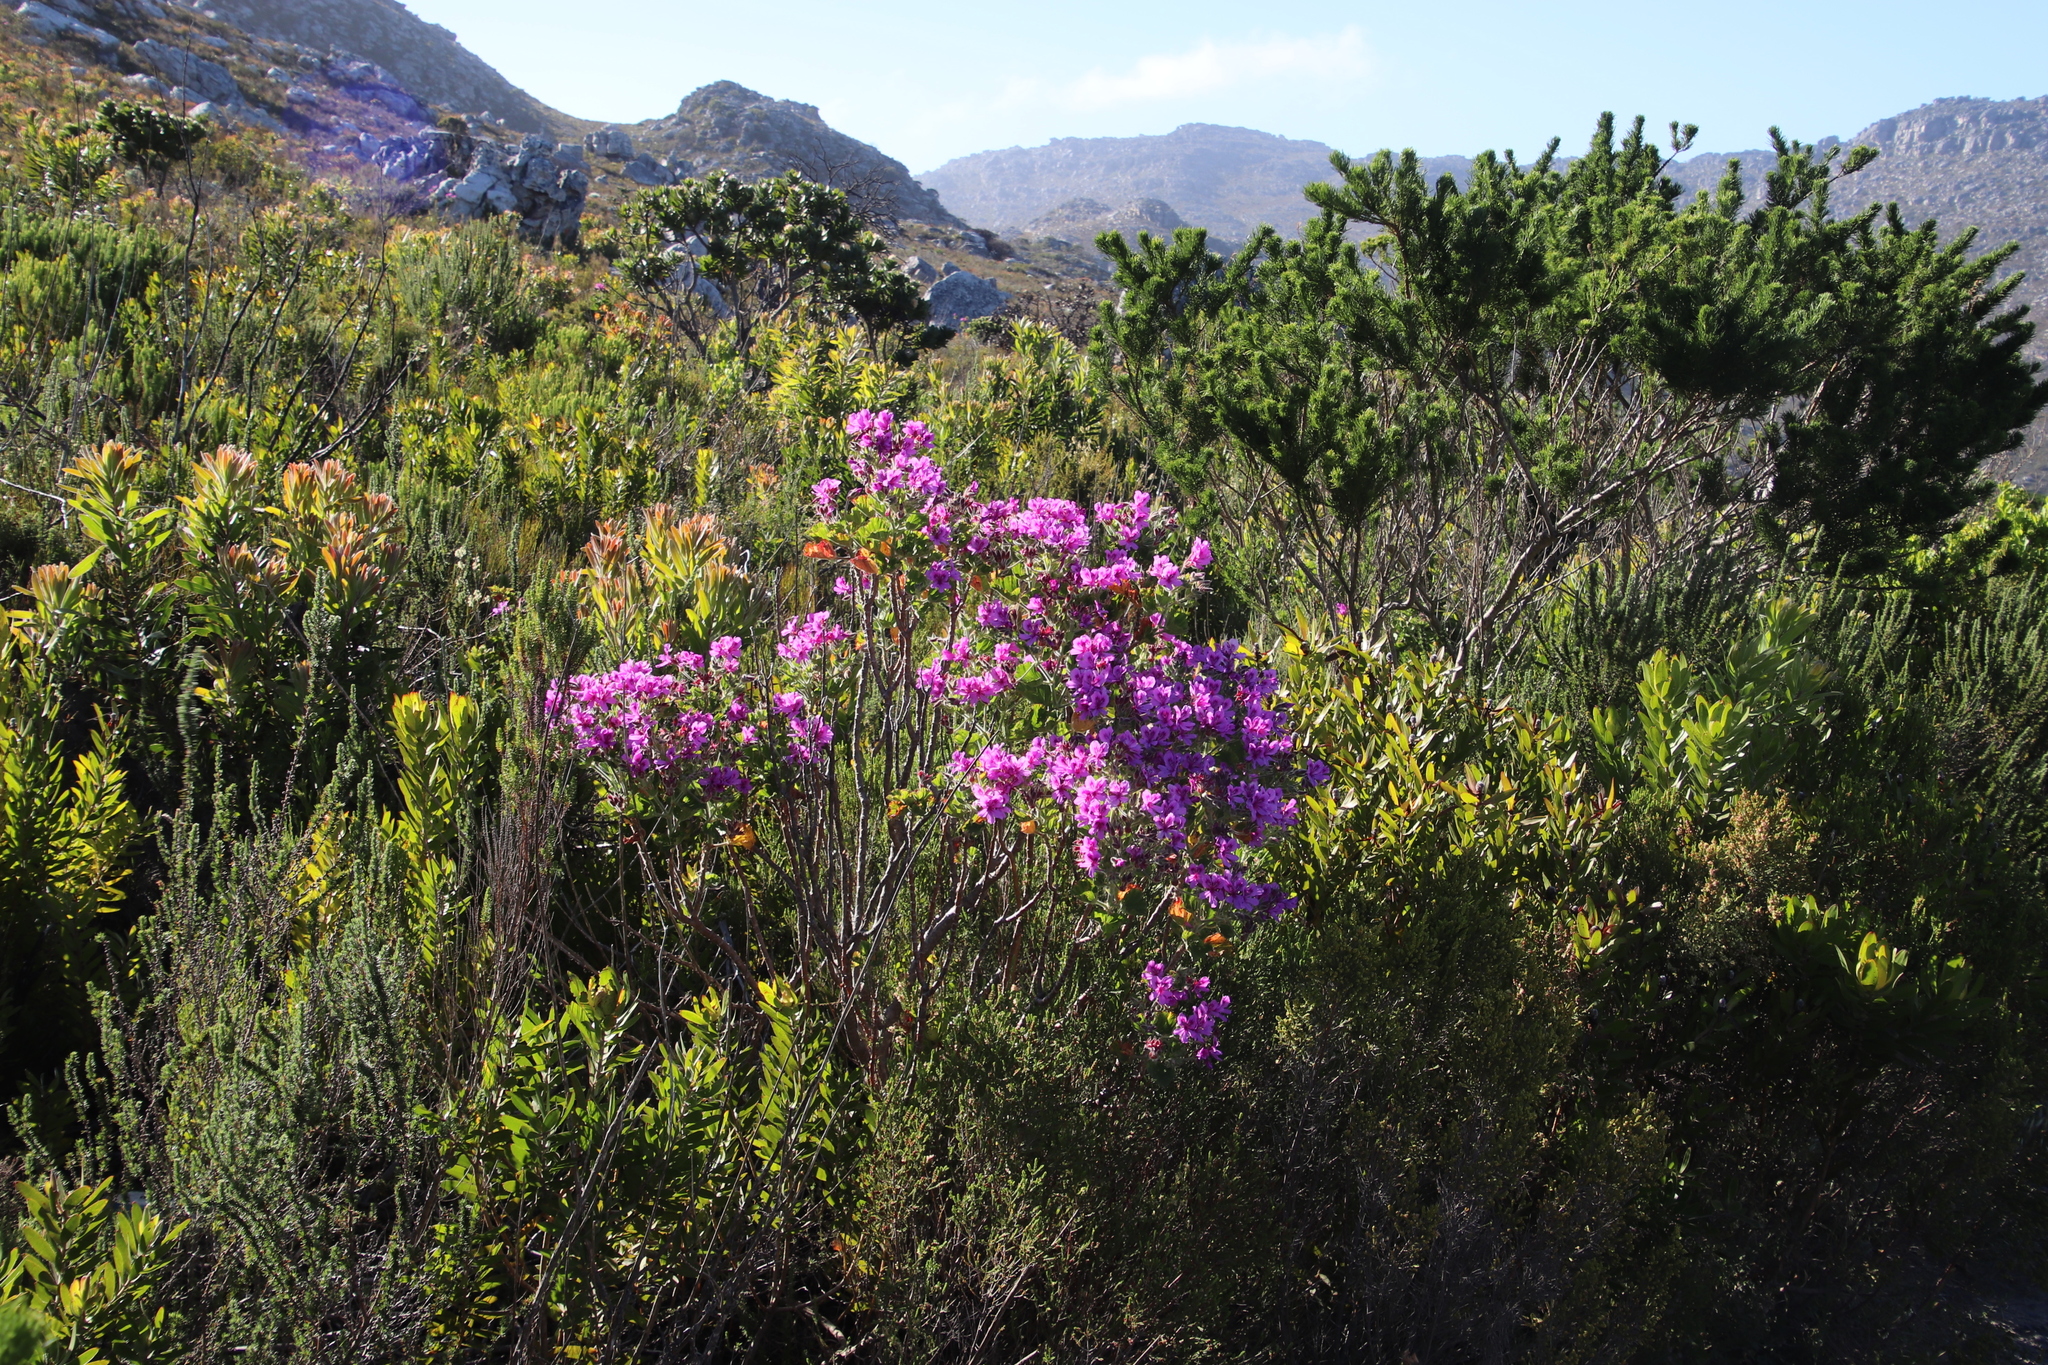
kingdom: Plantae
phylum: Tracheophyta
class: Magnoliopsida
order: Geraniales
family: Geraniaceae
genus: Pelargonium
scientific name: Pelargonium cucullatum
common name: Tree pelargonium
